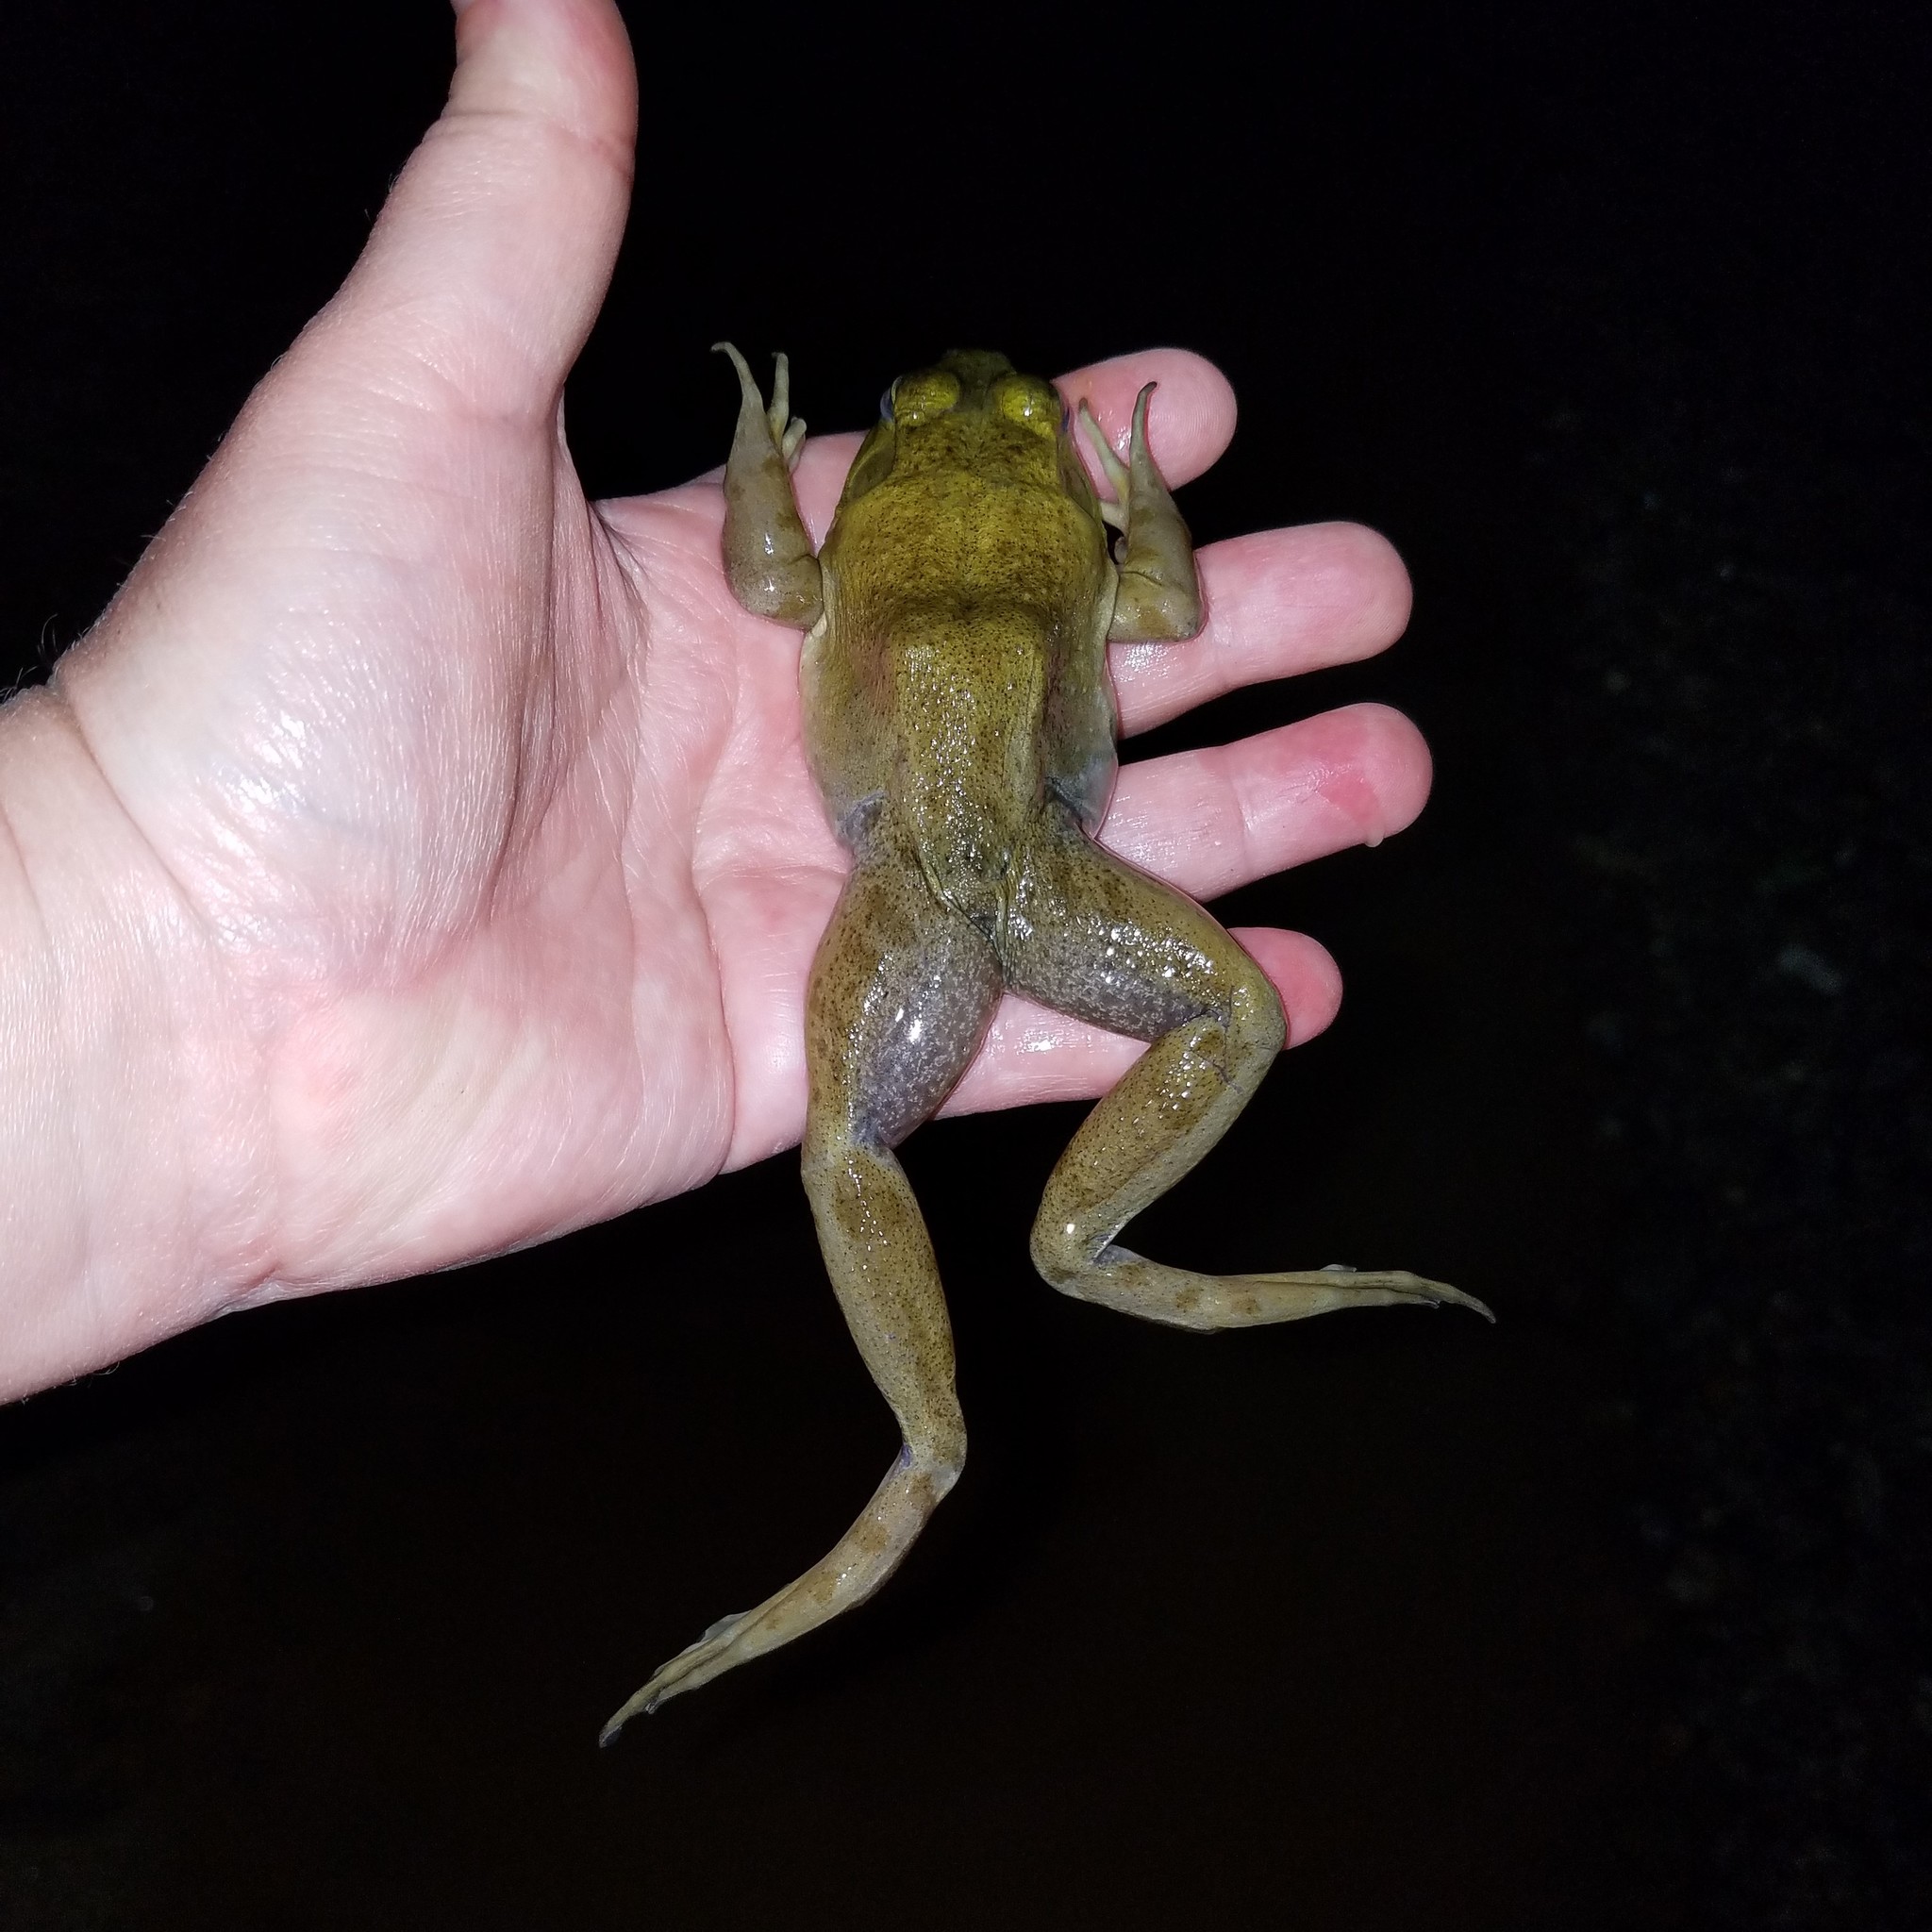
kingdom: Animalia
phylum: Chordata
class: Amphibia
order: Anura
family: Ranidae
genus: Lithobates
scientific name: Lithobates catesbeianus
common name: American bullfrog
